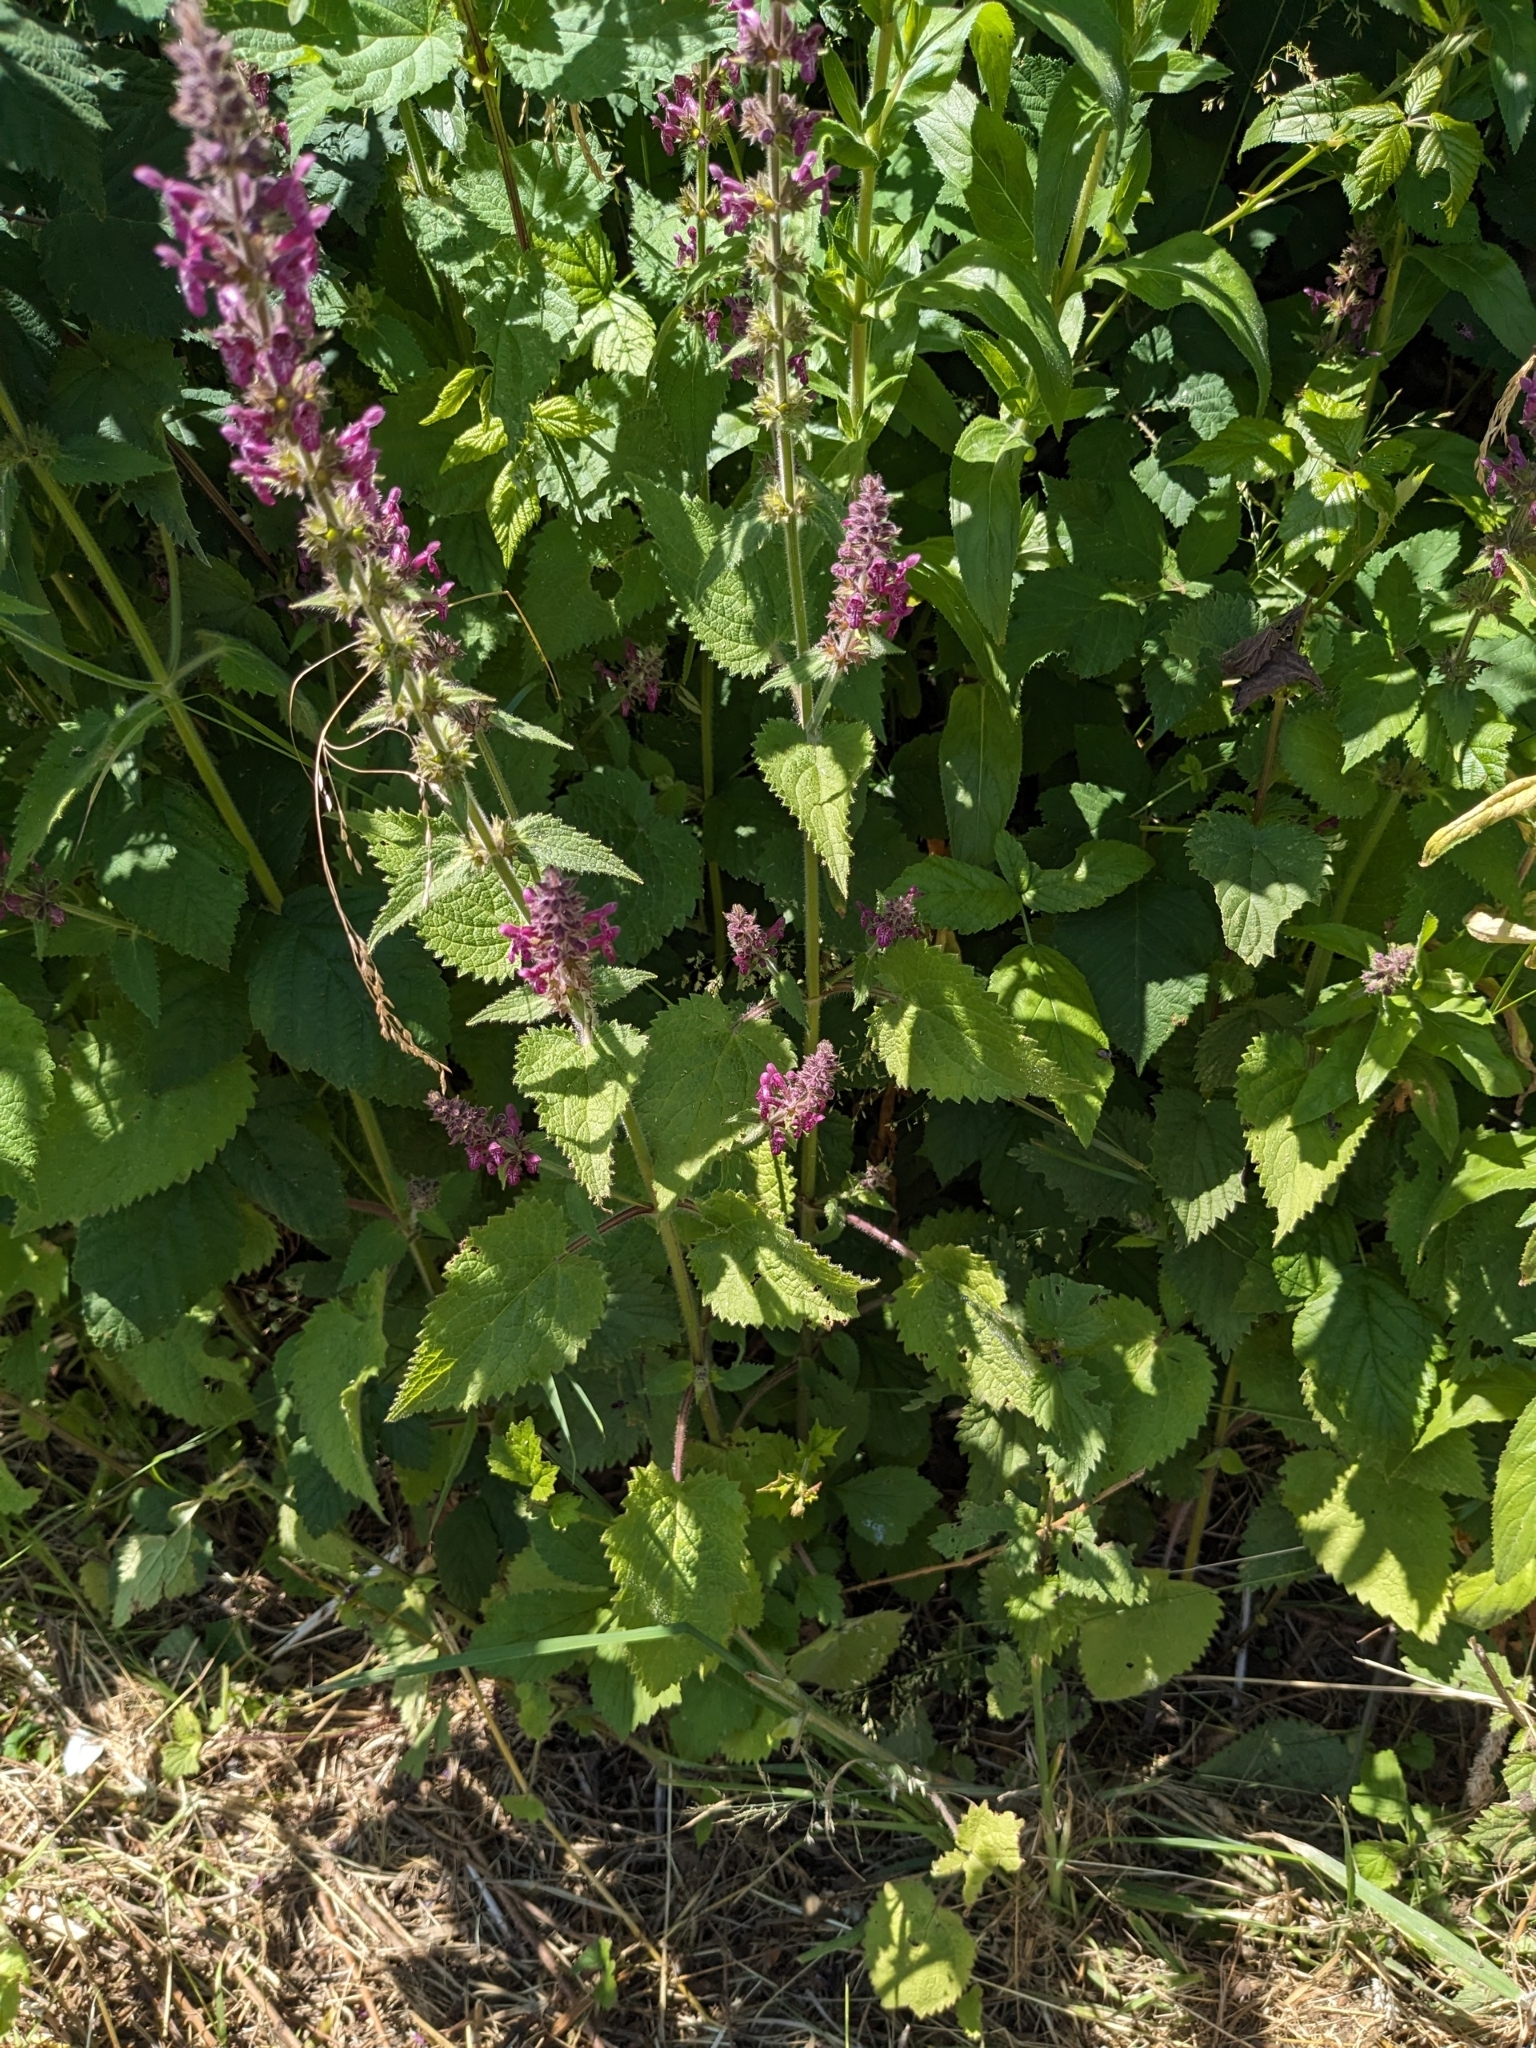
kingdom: Plantae
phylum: Tracheophyta
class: Magnoliopsida
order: Lamiales
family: Lamiaceae
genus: Stachys
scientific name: Stachys sylvatica
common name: Hedge woundwort
